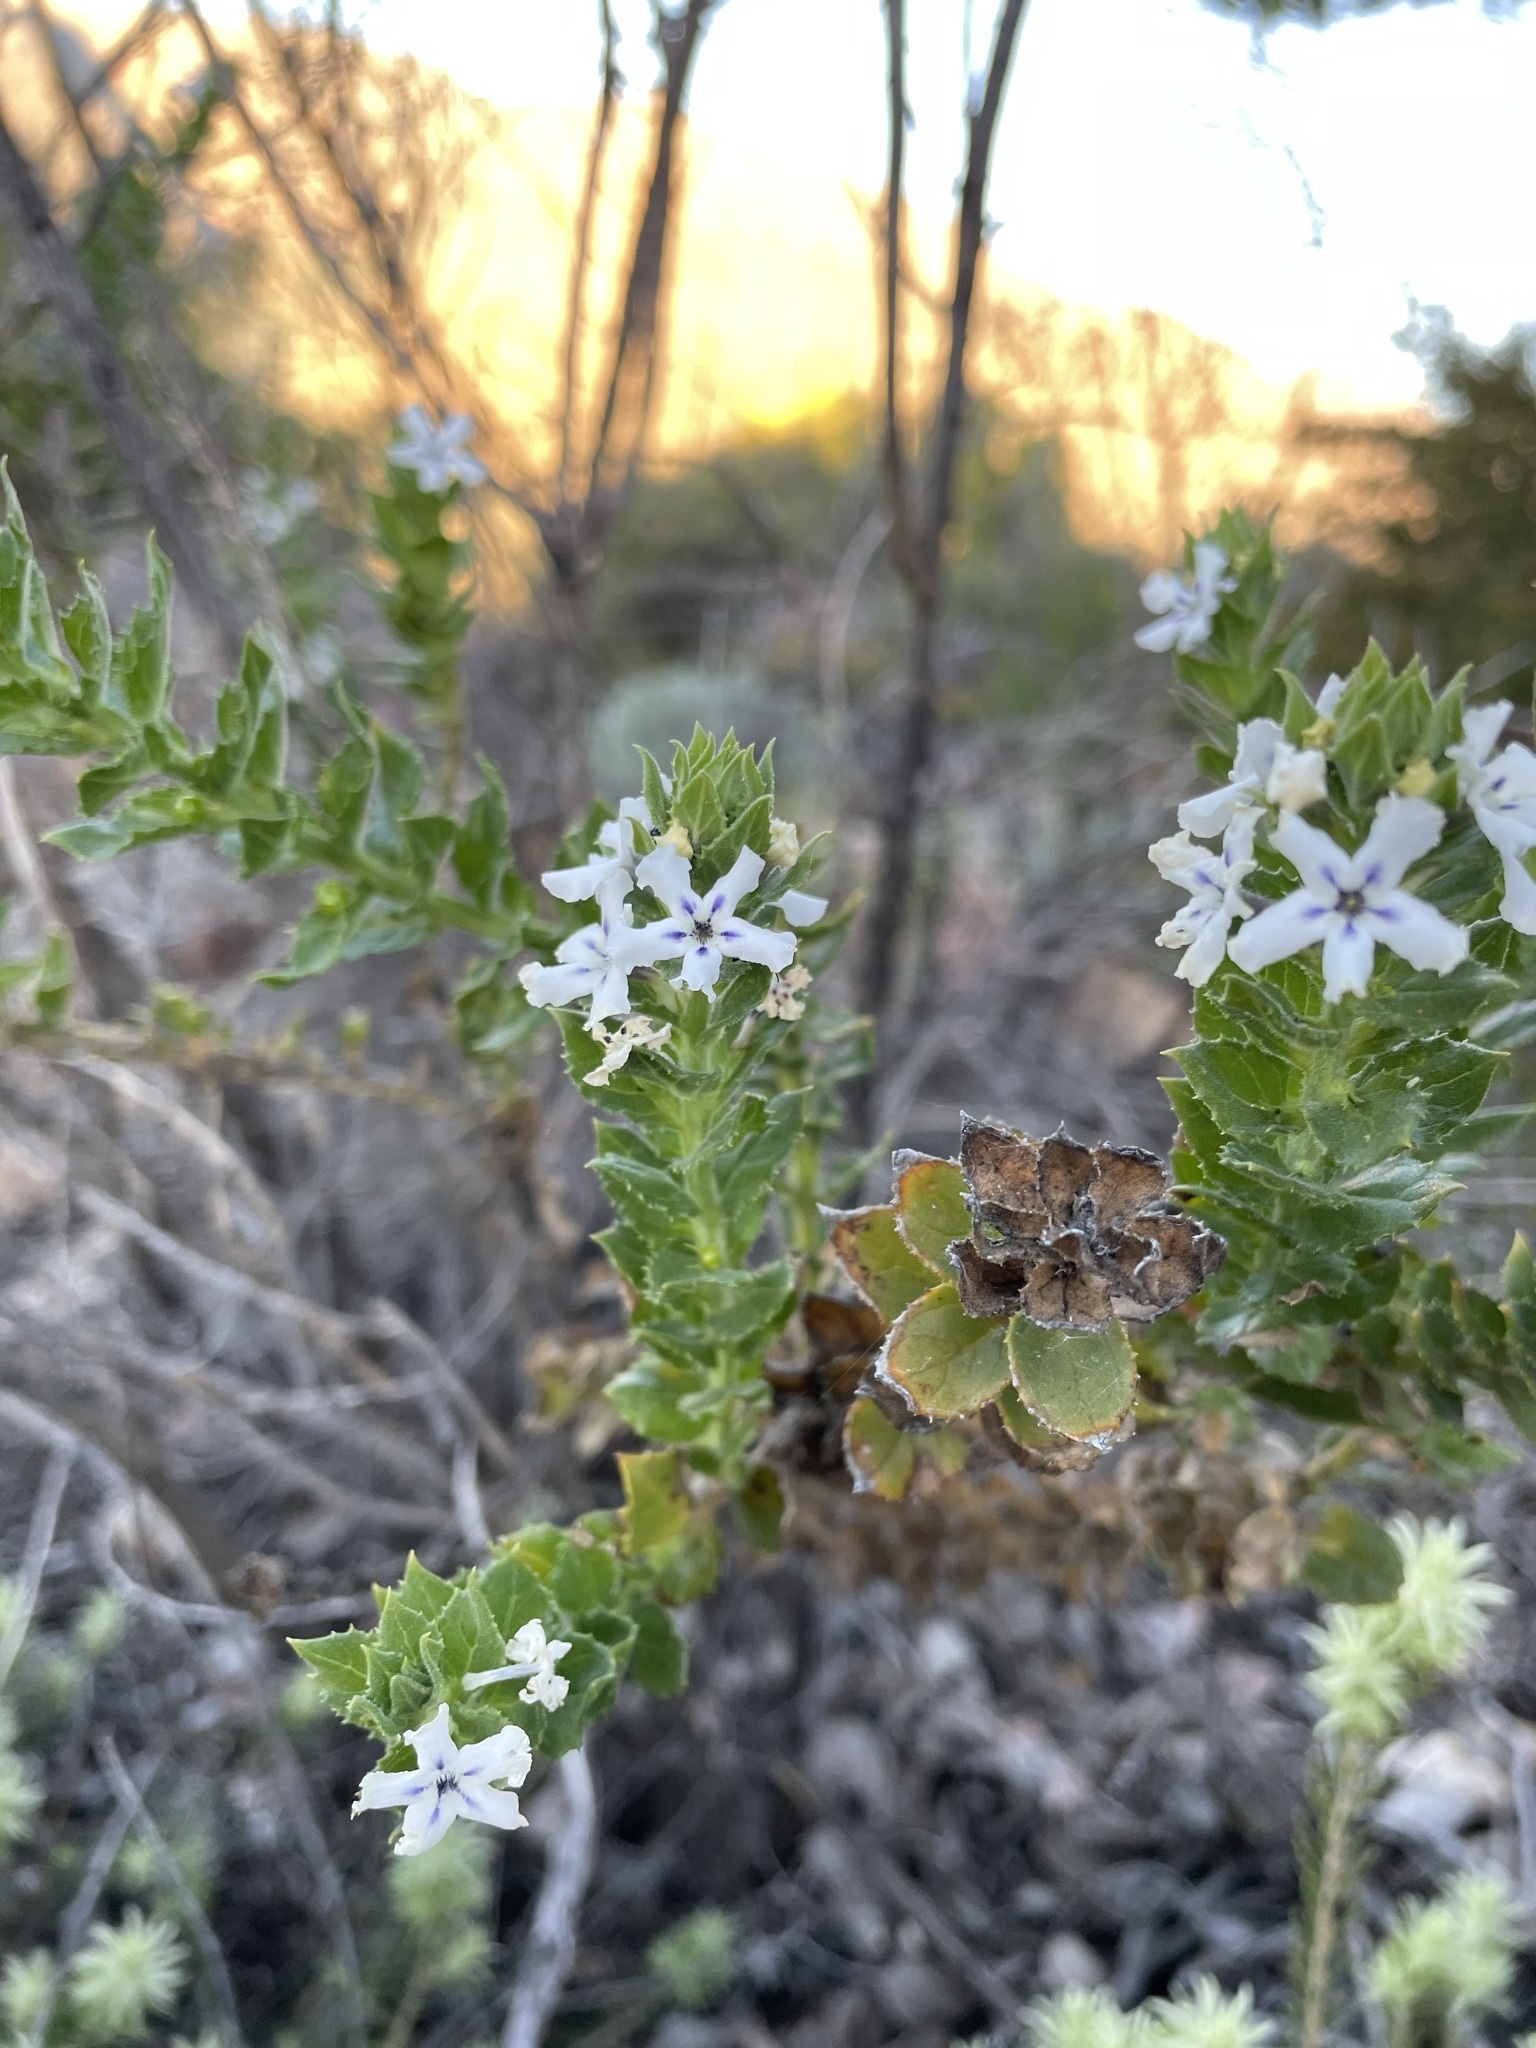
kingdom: Plantae
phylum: Tracheophyta
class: Magnoliopsida
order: Lamiales
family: Scrophulariaceae
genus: Oftia
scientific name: Oftia africana
